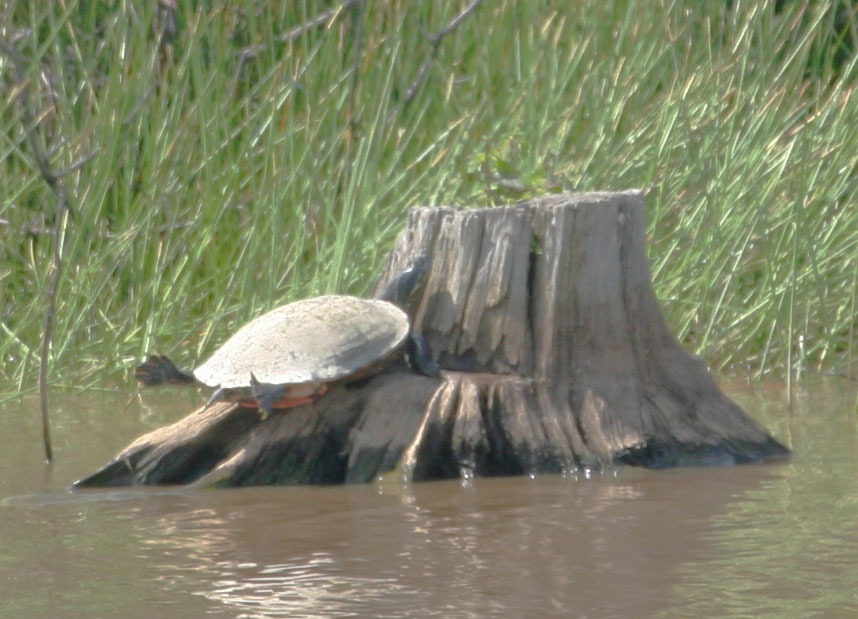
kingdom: Animalia
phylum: Chordata
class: Testudines
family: Emydidae
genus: Pseudemys
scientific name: Pseudemys rubriventris
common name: American red-bellied turtle
